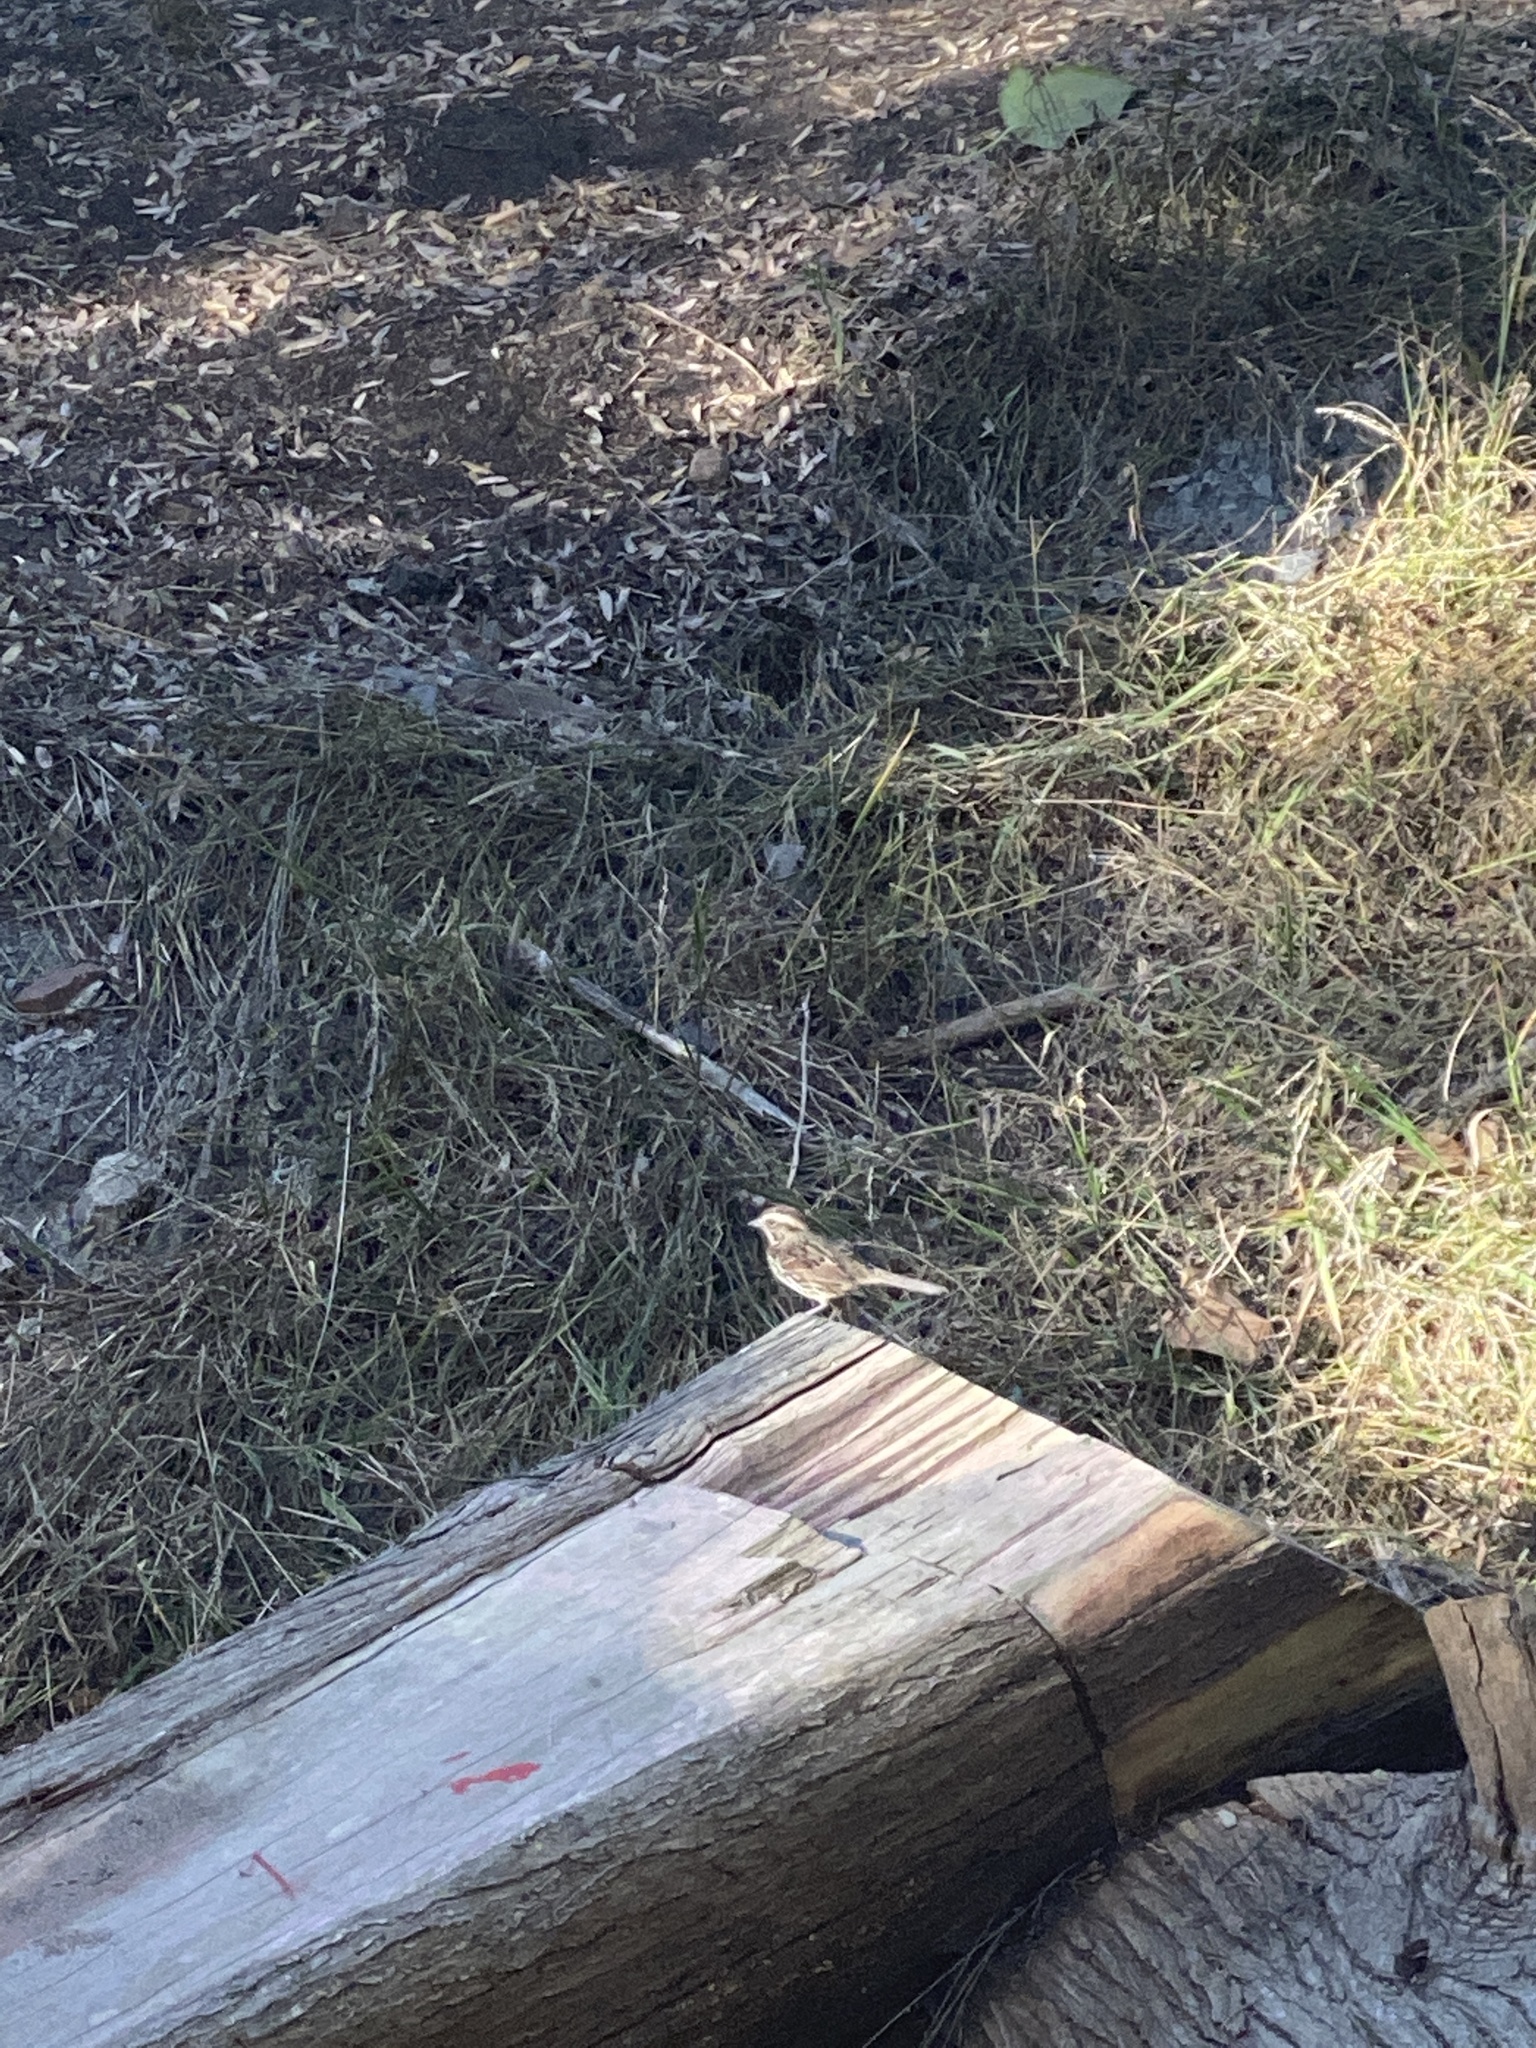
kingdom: Animalia
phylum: Chordata
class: Aves
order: Passeriformes
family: Passerellidae
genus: Melospiza
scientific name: Melospiza melodia
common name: Song sparrow
